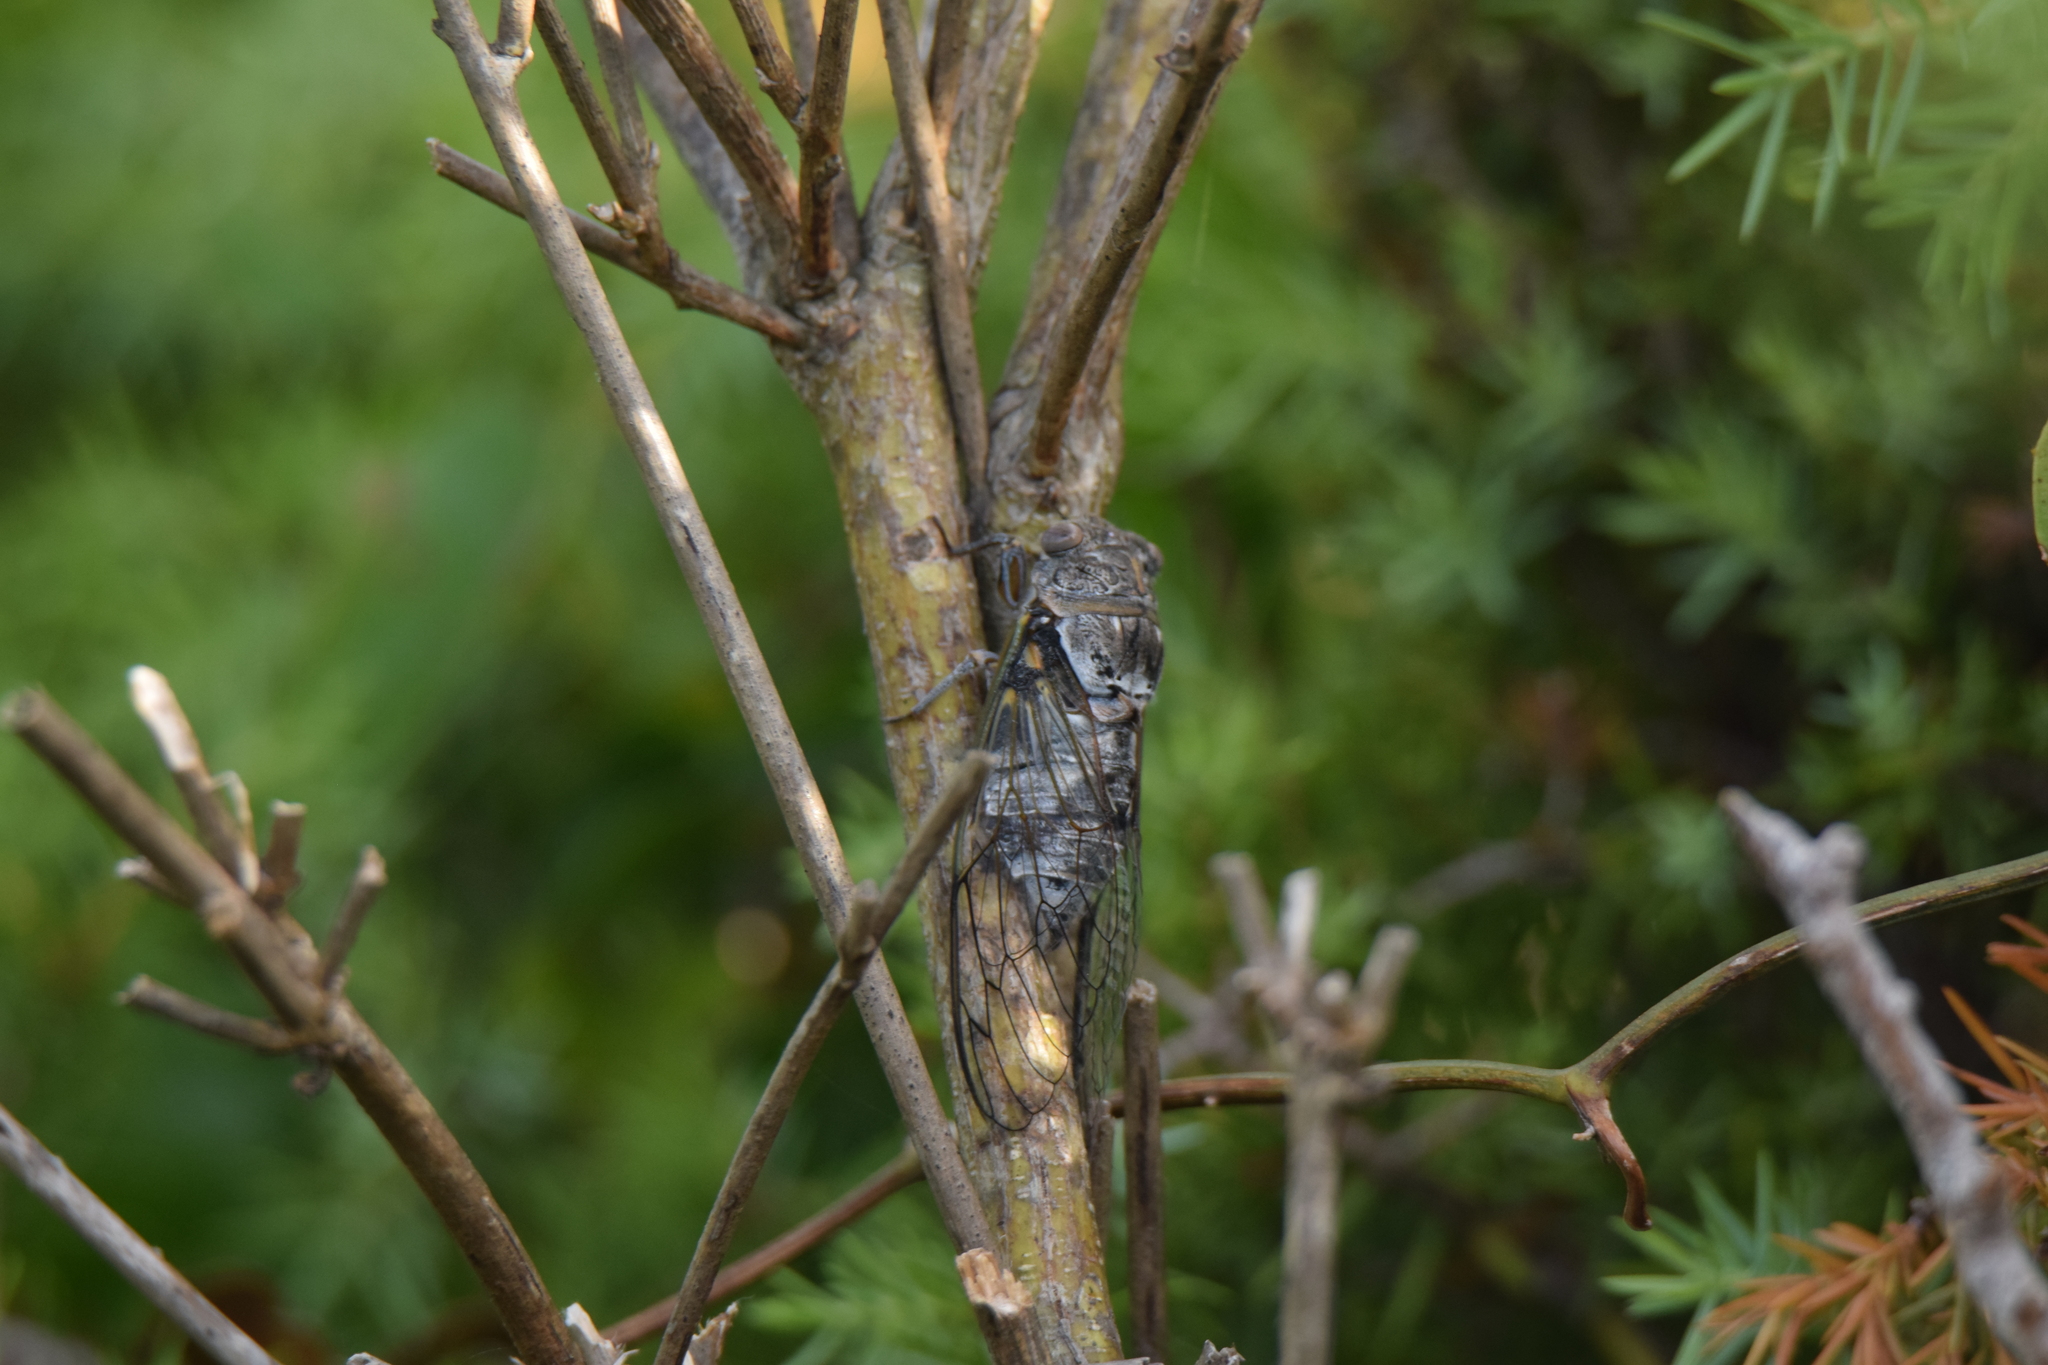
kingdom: Animalia
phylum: Arthropoda
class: Insecta
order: Hemiptera
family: Cicadidae
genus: Lyristes
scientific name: Lyristes plebejus
